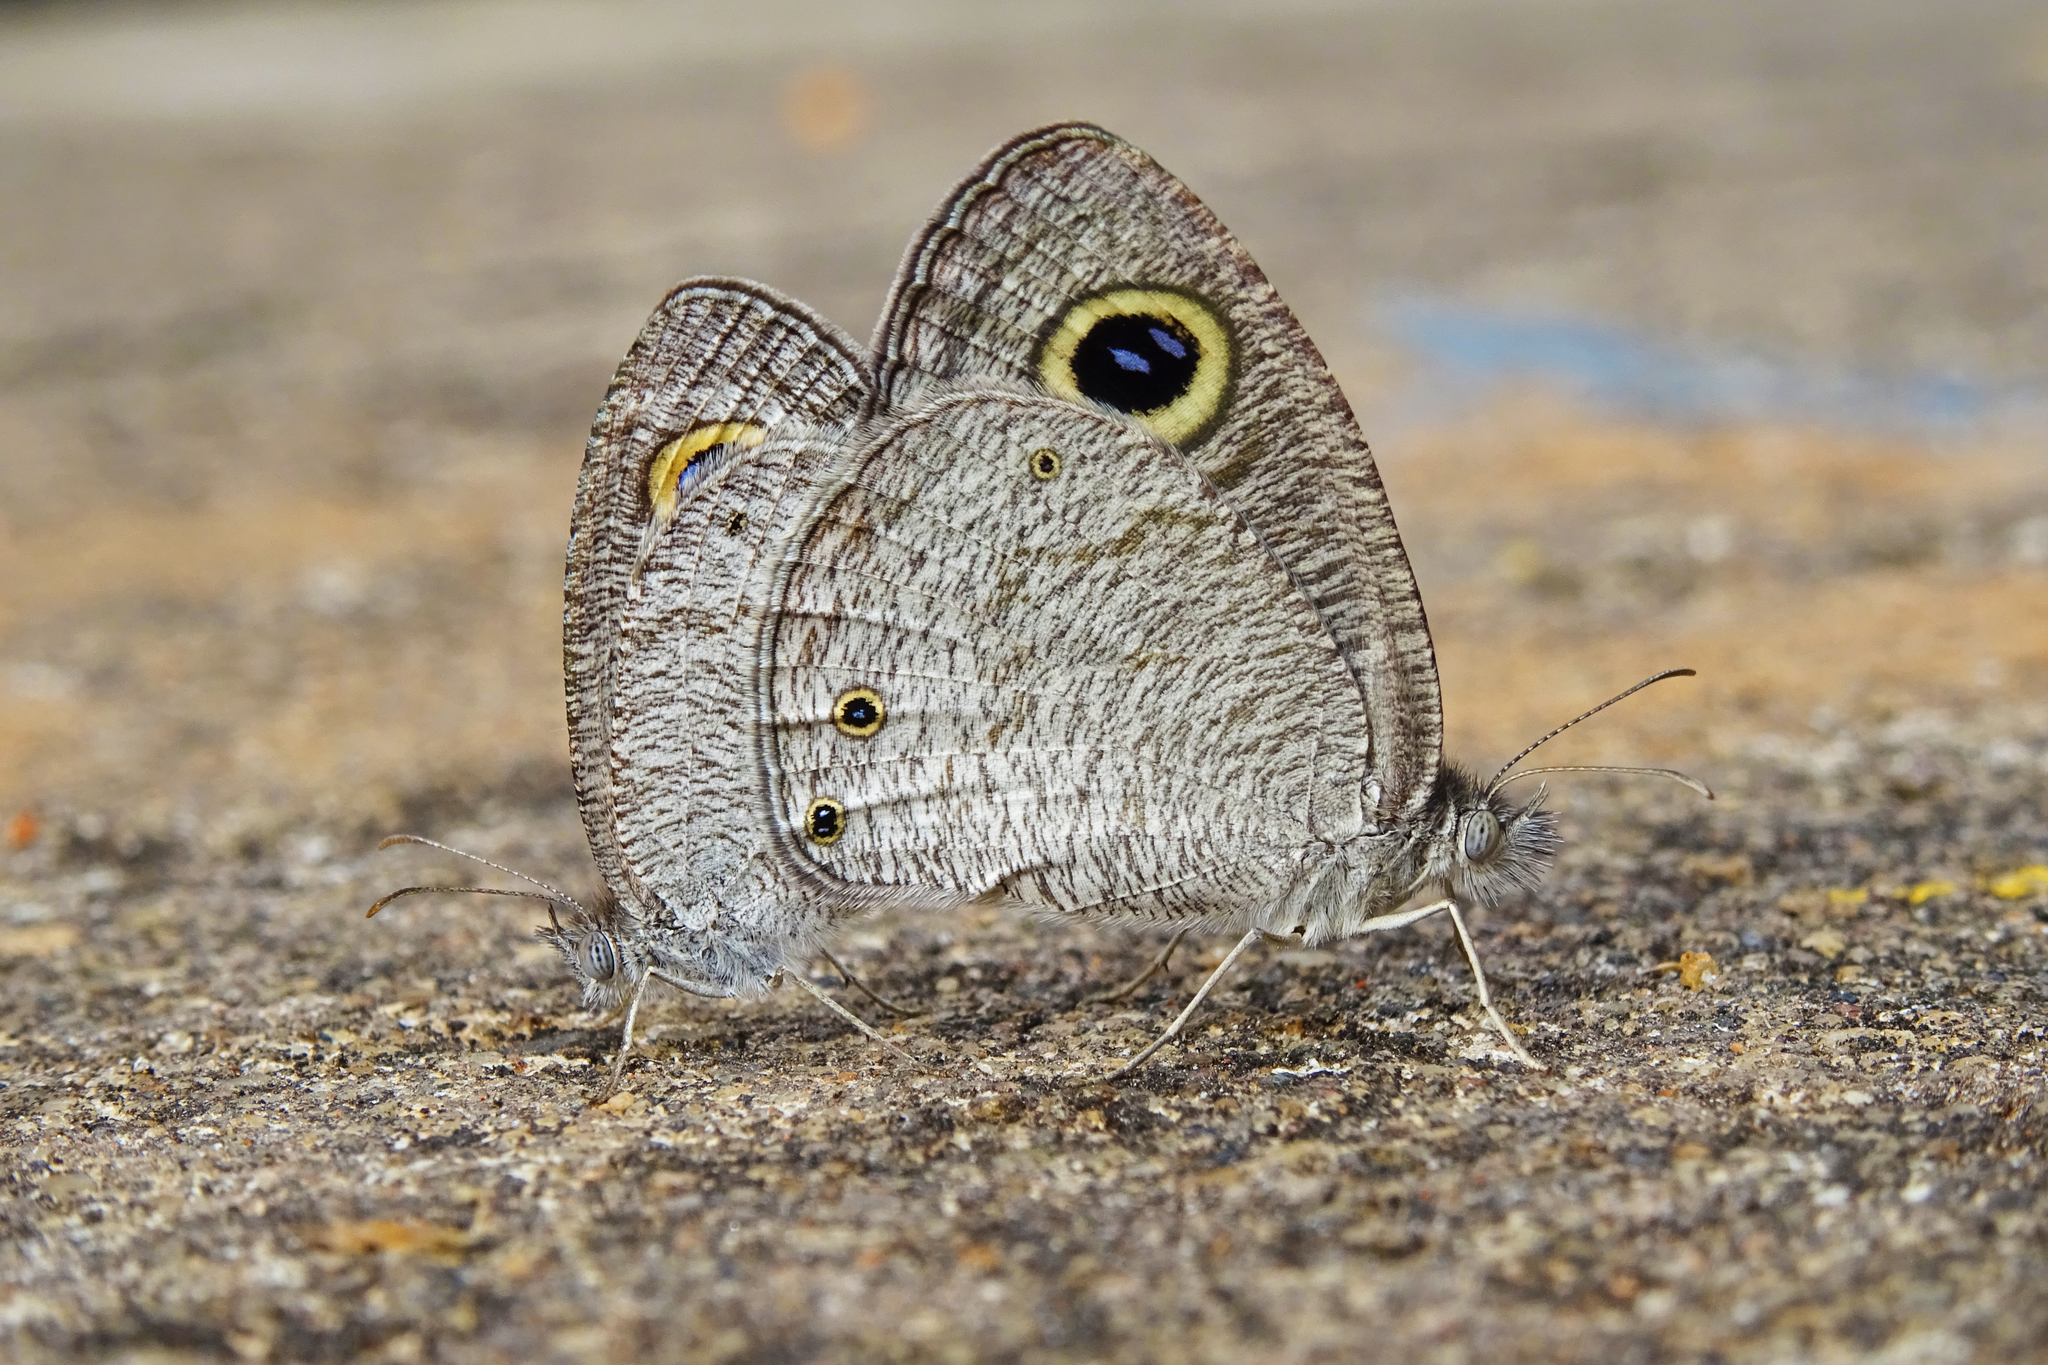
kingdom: Animalia
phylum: Arthropoda
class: Insecta
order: Lepidoptera
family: Nymphalidae
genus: Ypthima
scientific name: Ypthima asterope
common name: African ringlet
